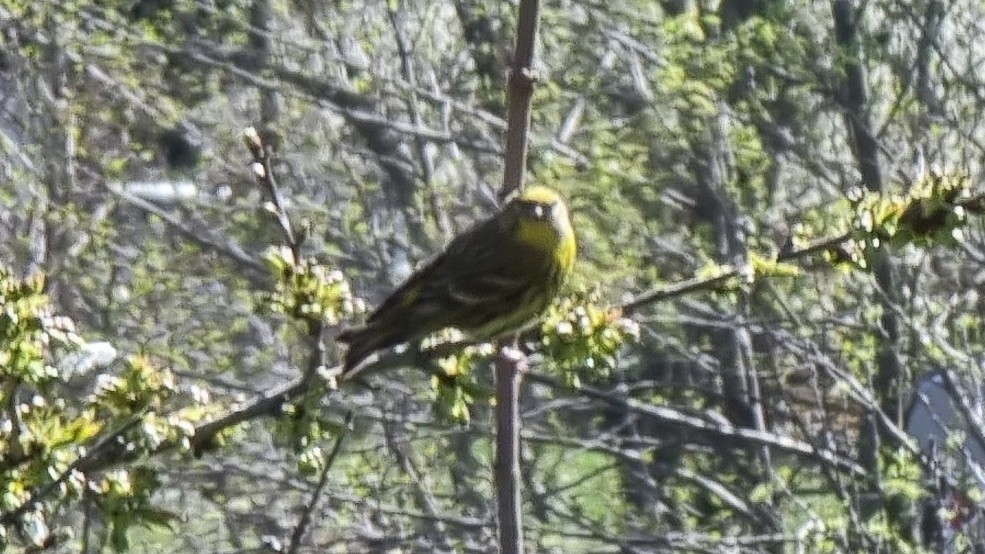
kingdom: Animalia
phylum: Chordata
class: Aves
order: Passeriformes
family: Fringillidae
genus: Serinus
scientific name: Serinus serinus
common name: European serin
